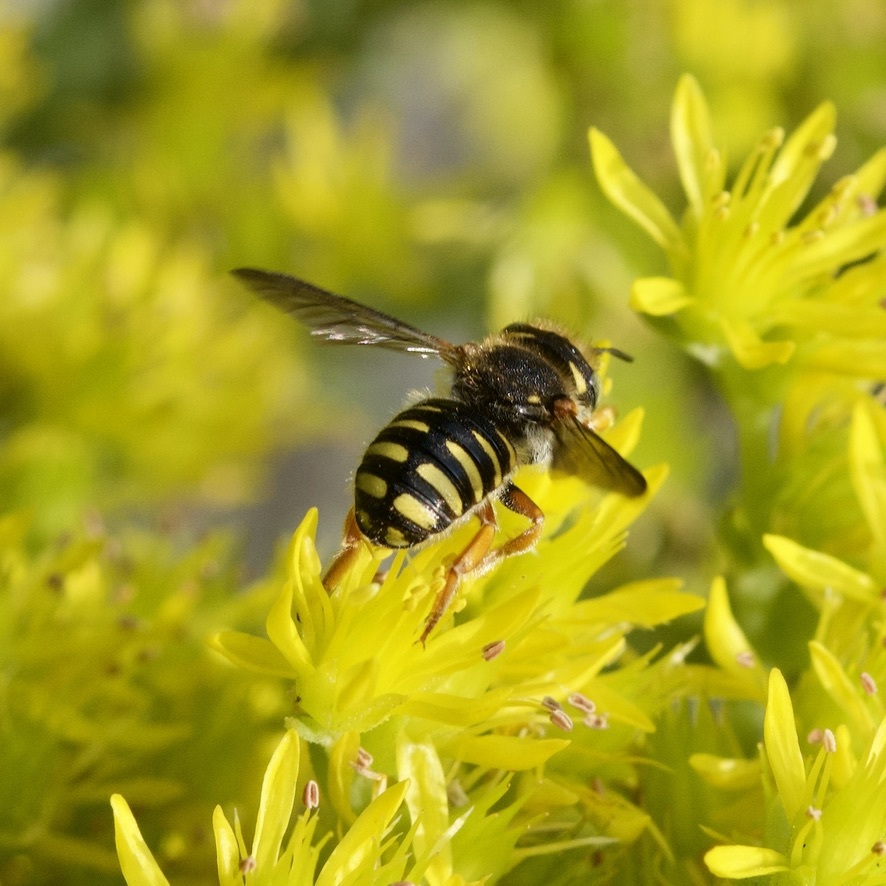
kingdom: Animalia
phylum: Arthropoda
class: Insecta
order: Hymenoptera
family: Megachilidae
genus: Anthidium
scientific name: Anthidium oblongatum
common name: Oblong wool carder bee
